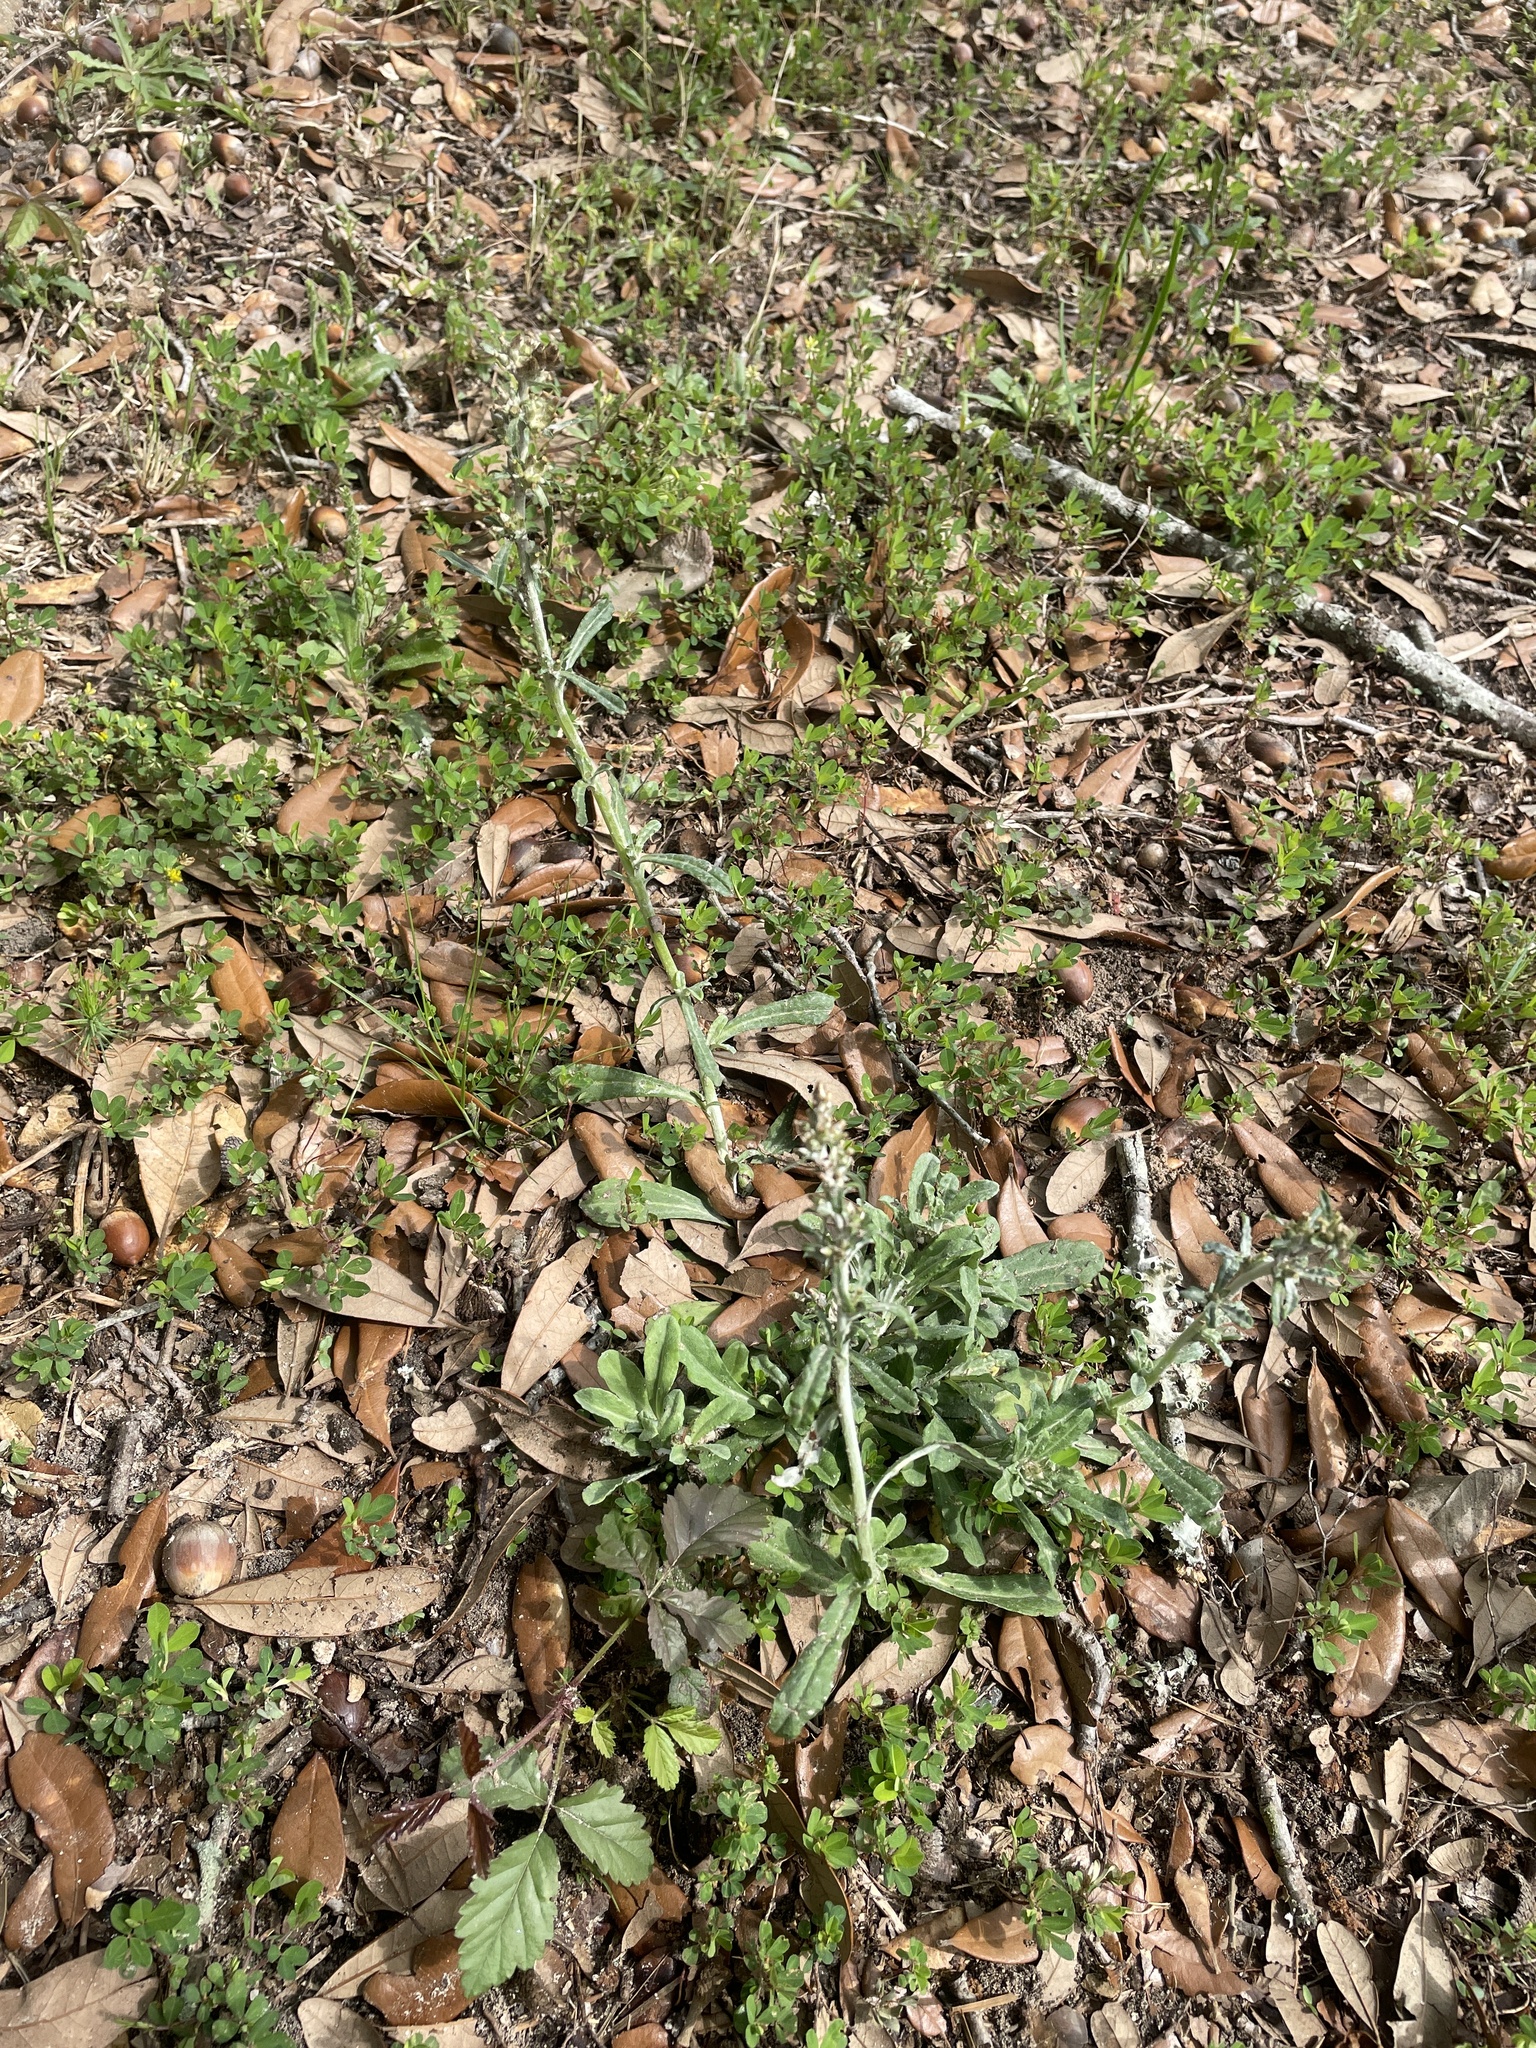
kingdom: Plantae
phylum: Tracheophyta
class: Magnoliopsida
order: Asterales
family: Asteraceae
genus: Gamochaeta
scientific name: Gamochaeta purpurea
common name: Purple cudweed
